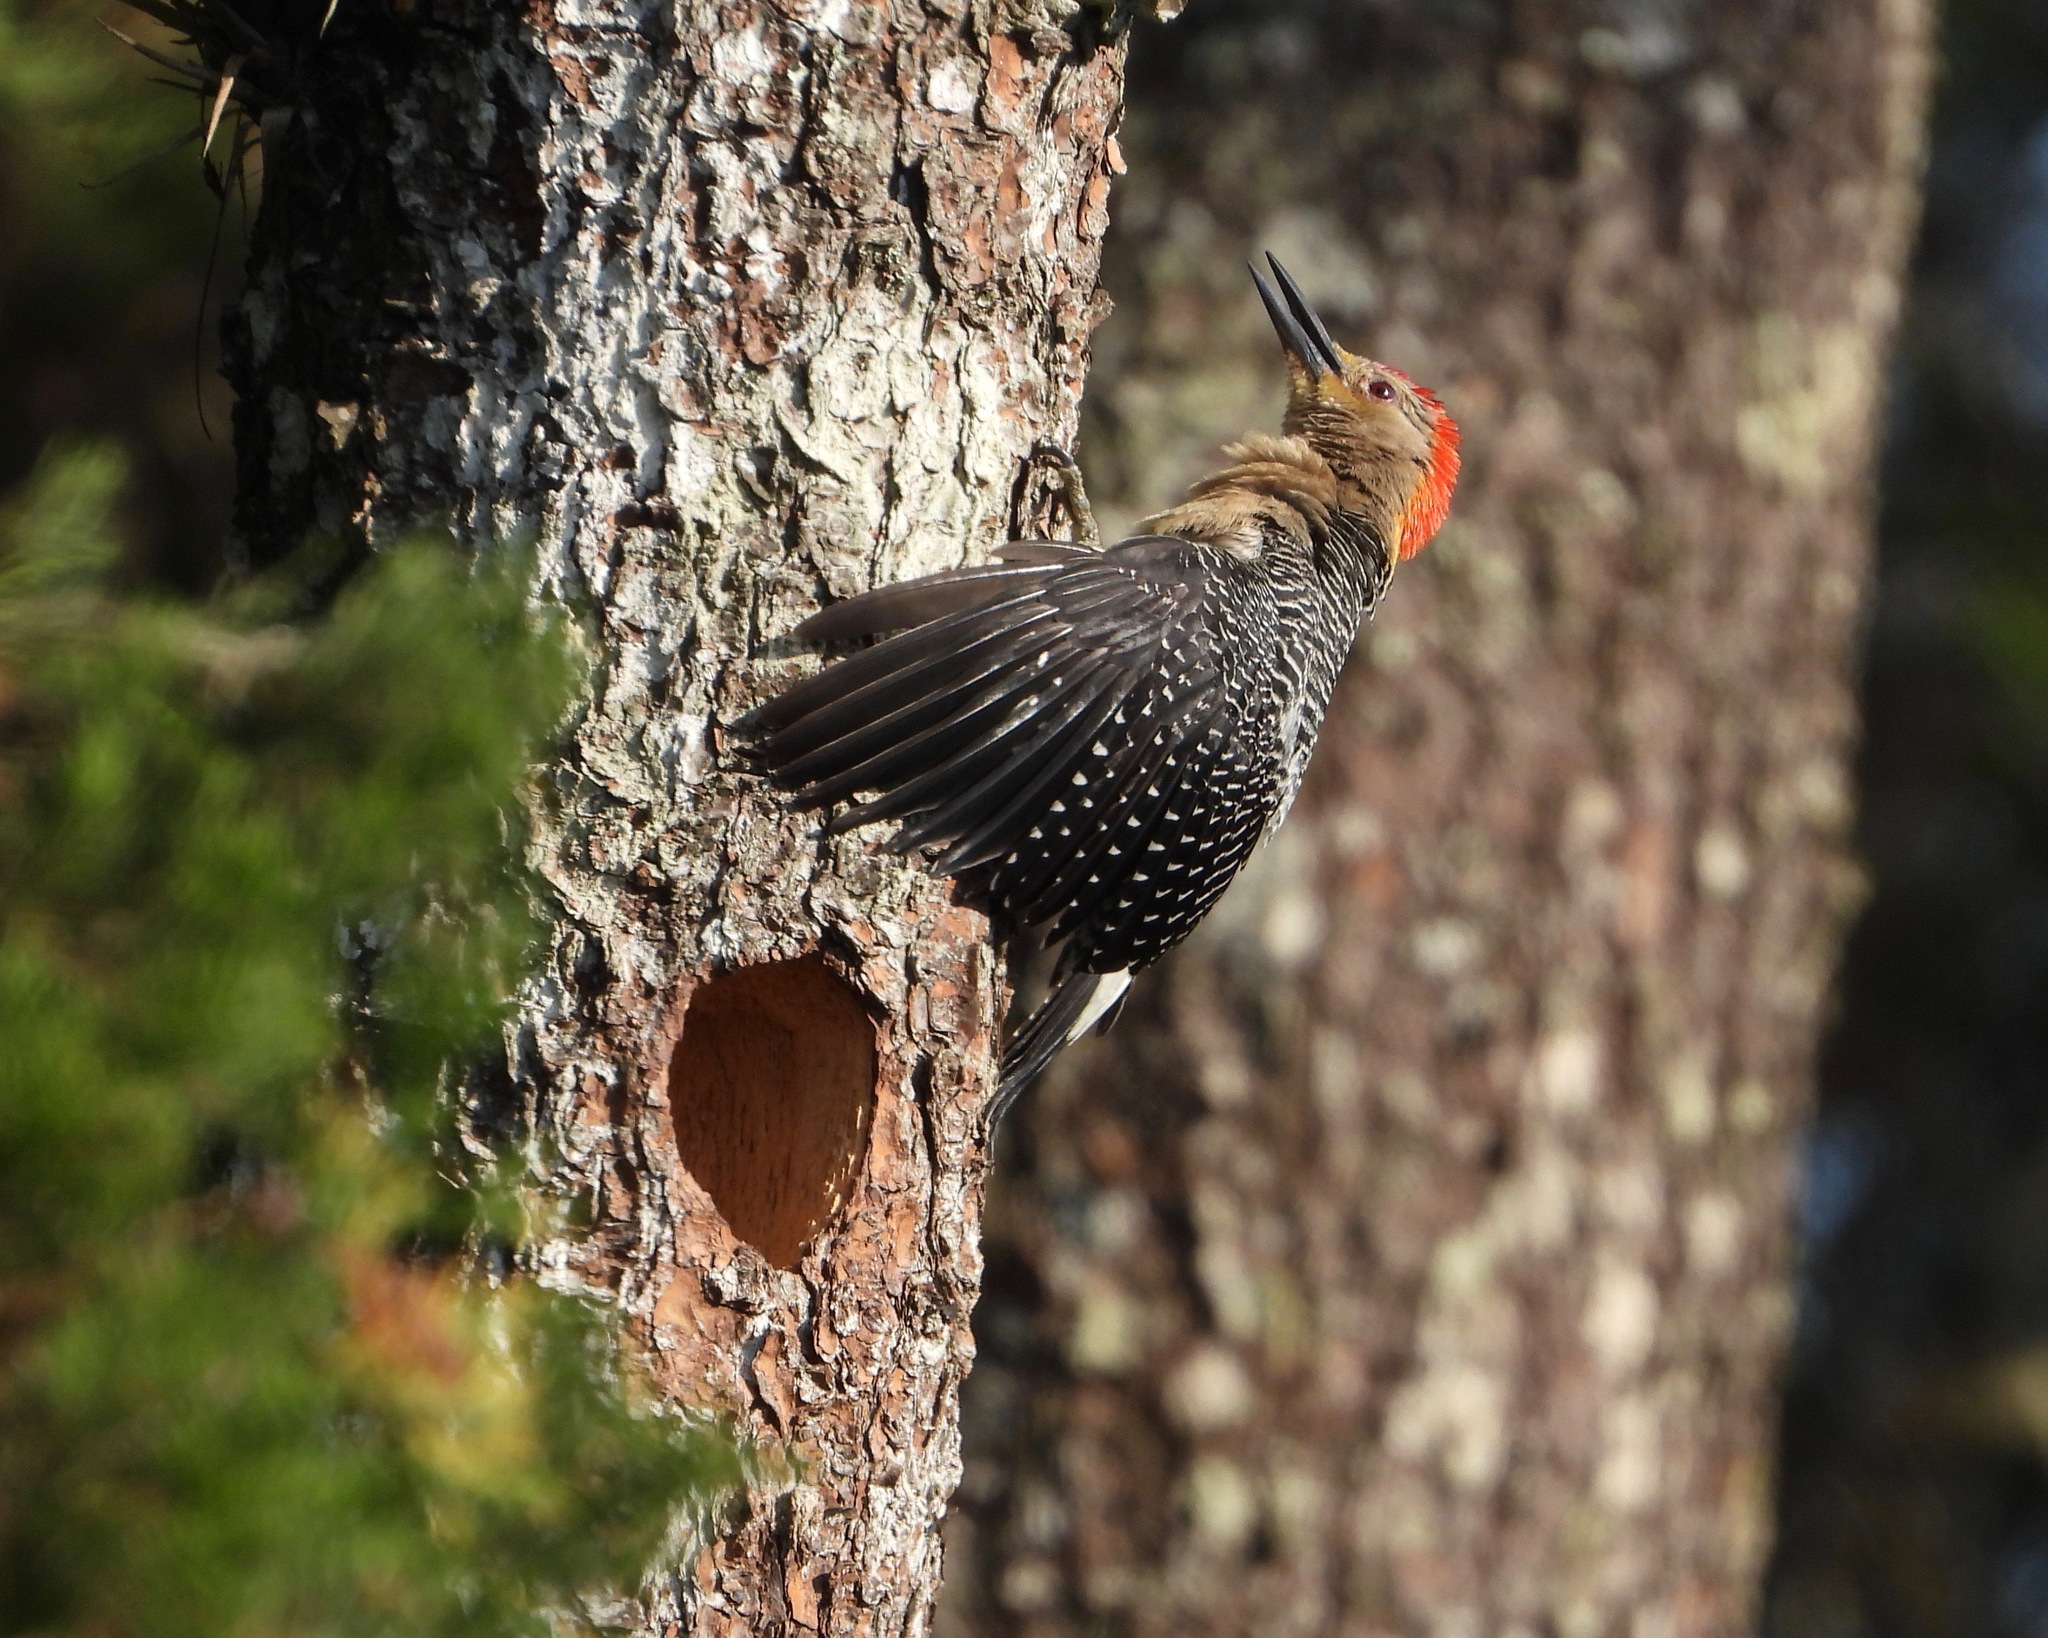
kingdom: Animalia
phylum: Chordata
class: Aves
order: Piciformes
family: Picidae
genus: Melanerpes
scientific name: Melanerpes santacruzi
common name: Velasquez's woodpecker
